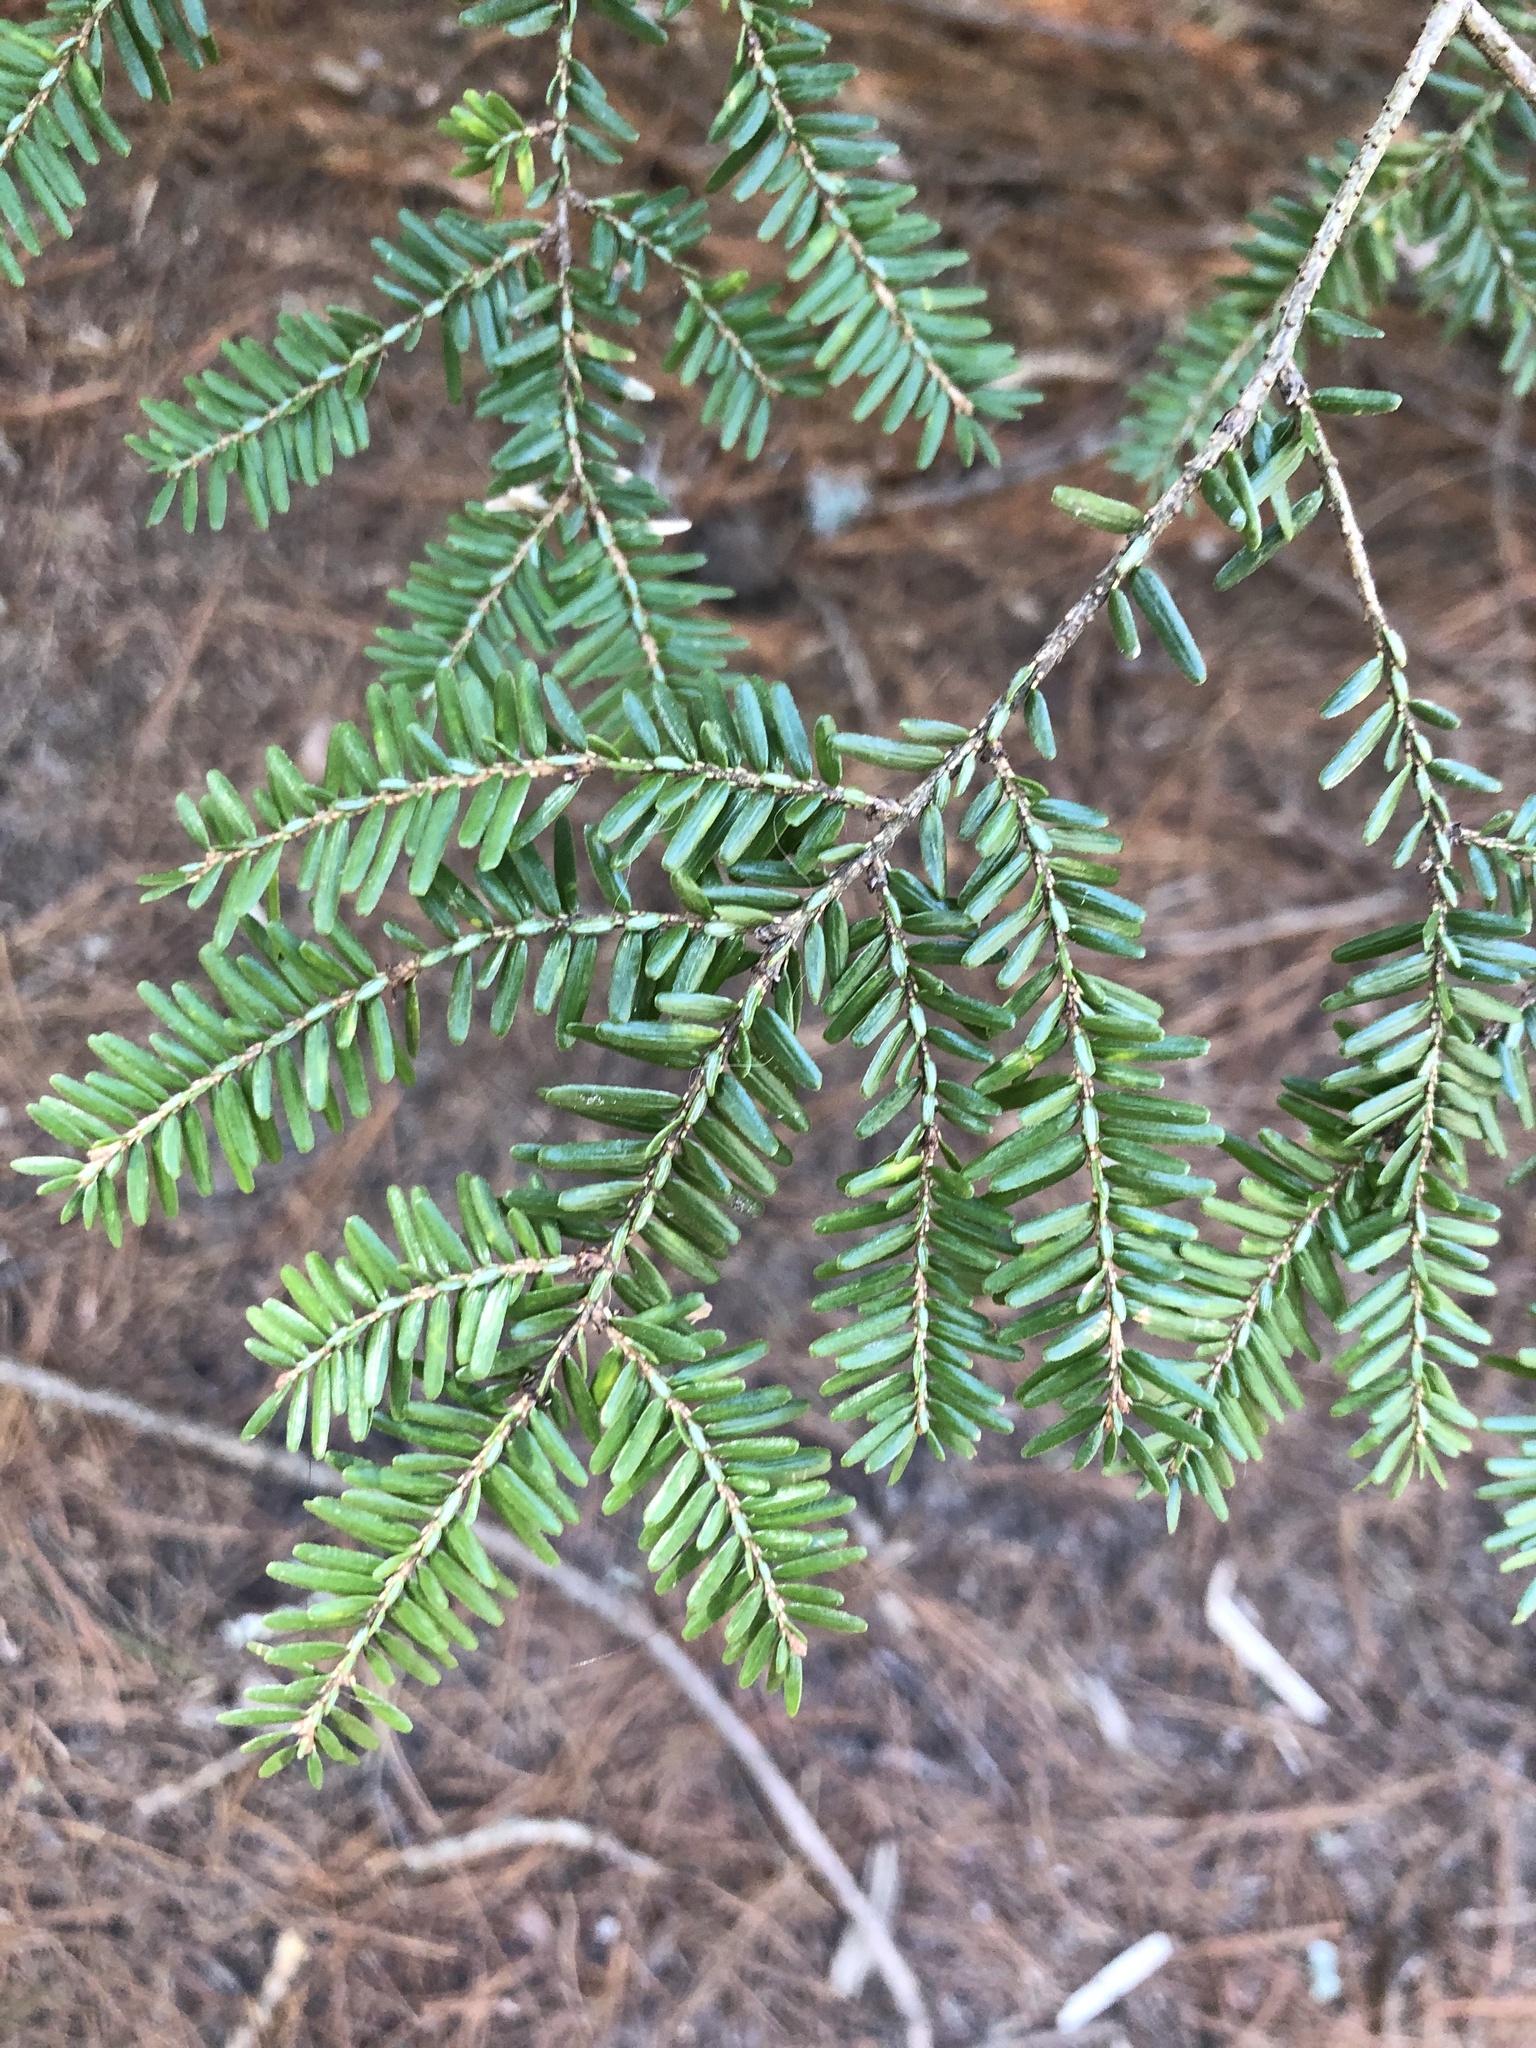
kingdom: Plantae
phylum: Tracheophyta
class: Pinopsida
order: Pinales
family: Pinaceae
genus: Tsuga
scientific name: Tsuga canadensis
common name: Eastern hemlock
